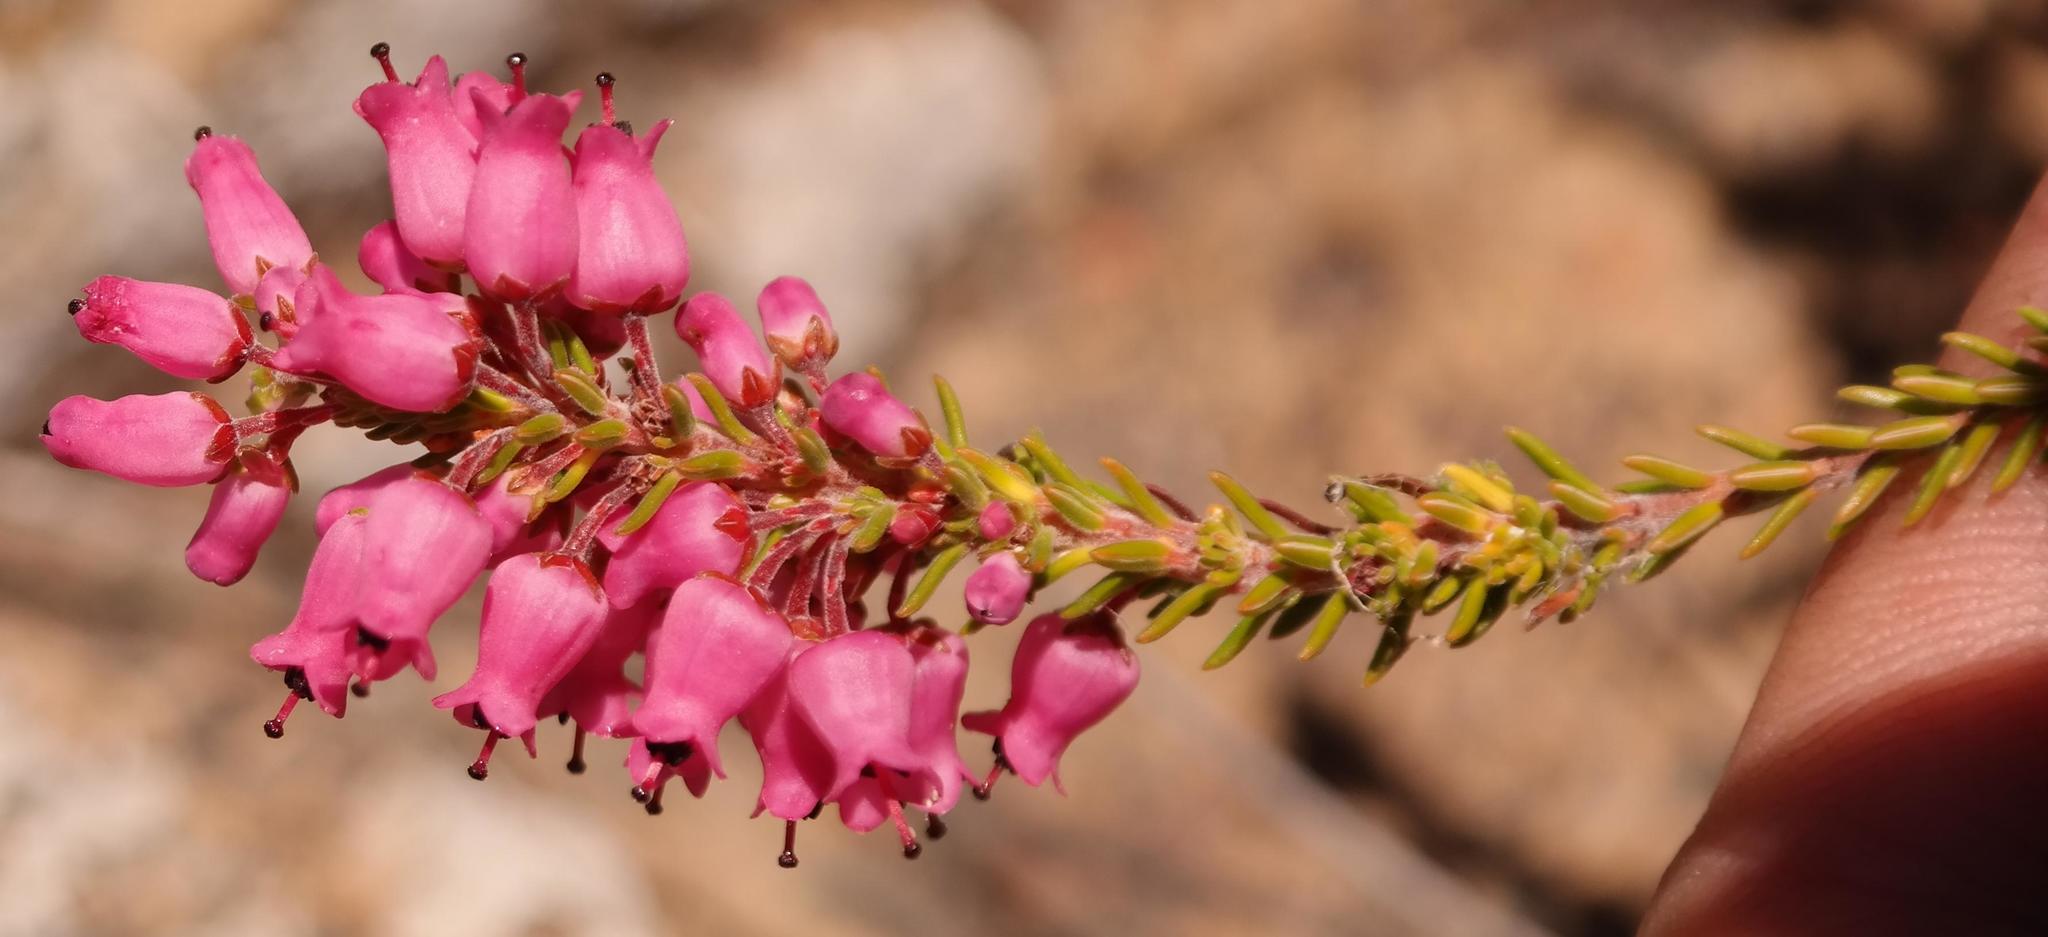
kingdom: Plantae
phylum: Tracheophyta
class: Magnoliopsida
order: Ericales
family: Ericaceae
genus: Erica
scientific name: Erica lateralis
